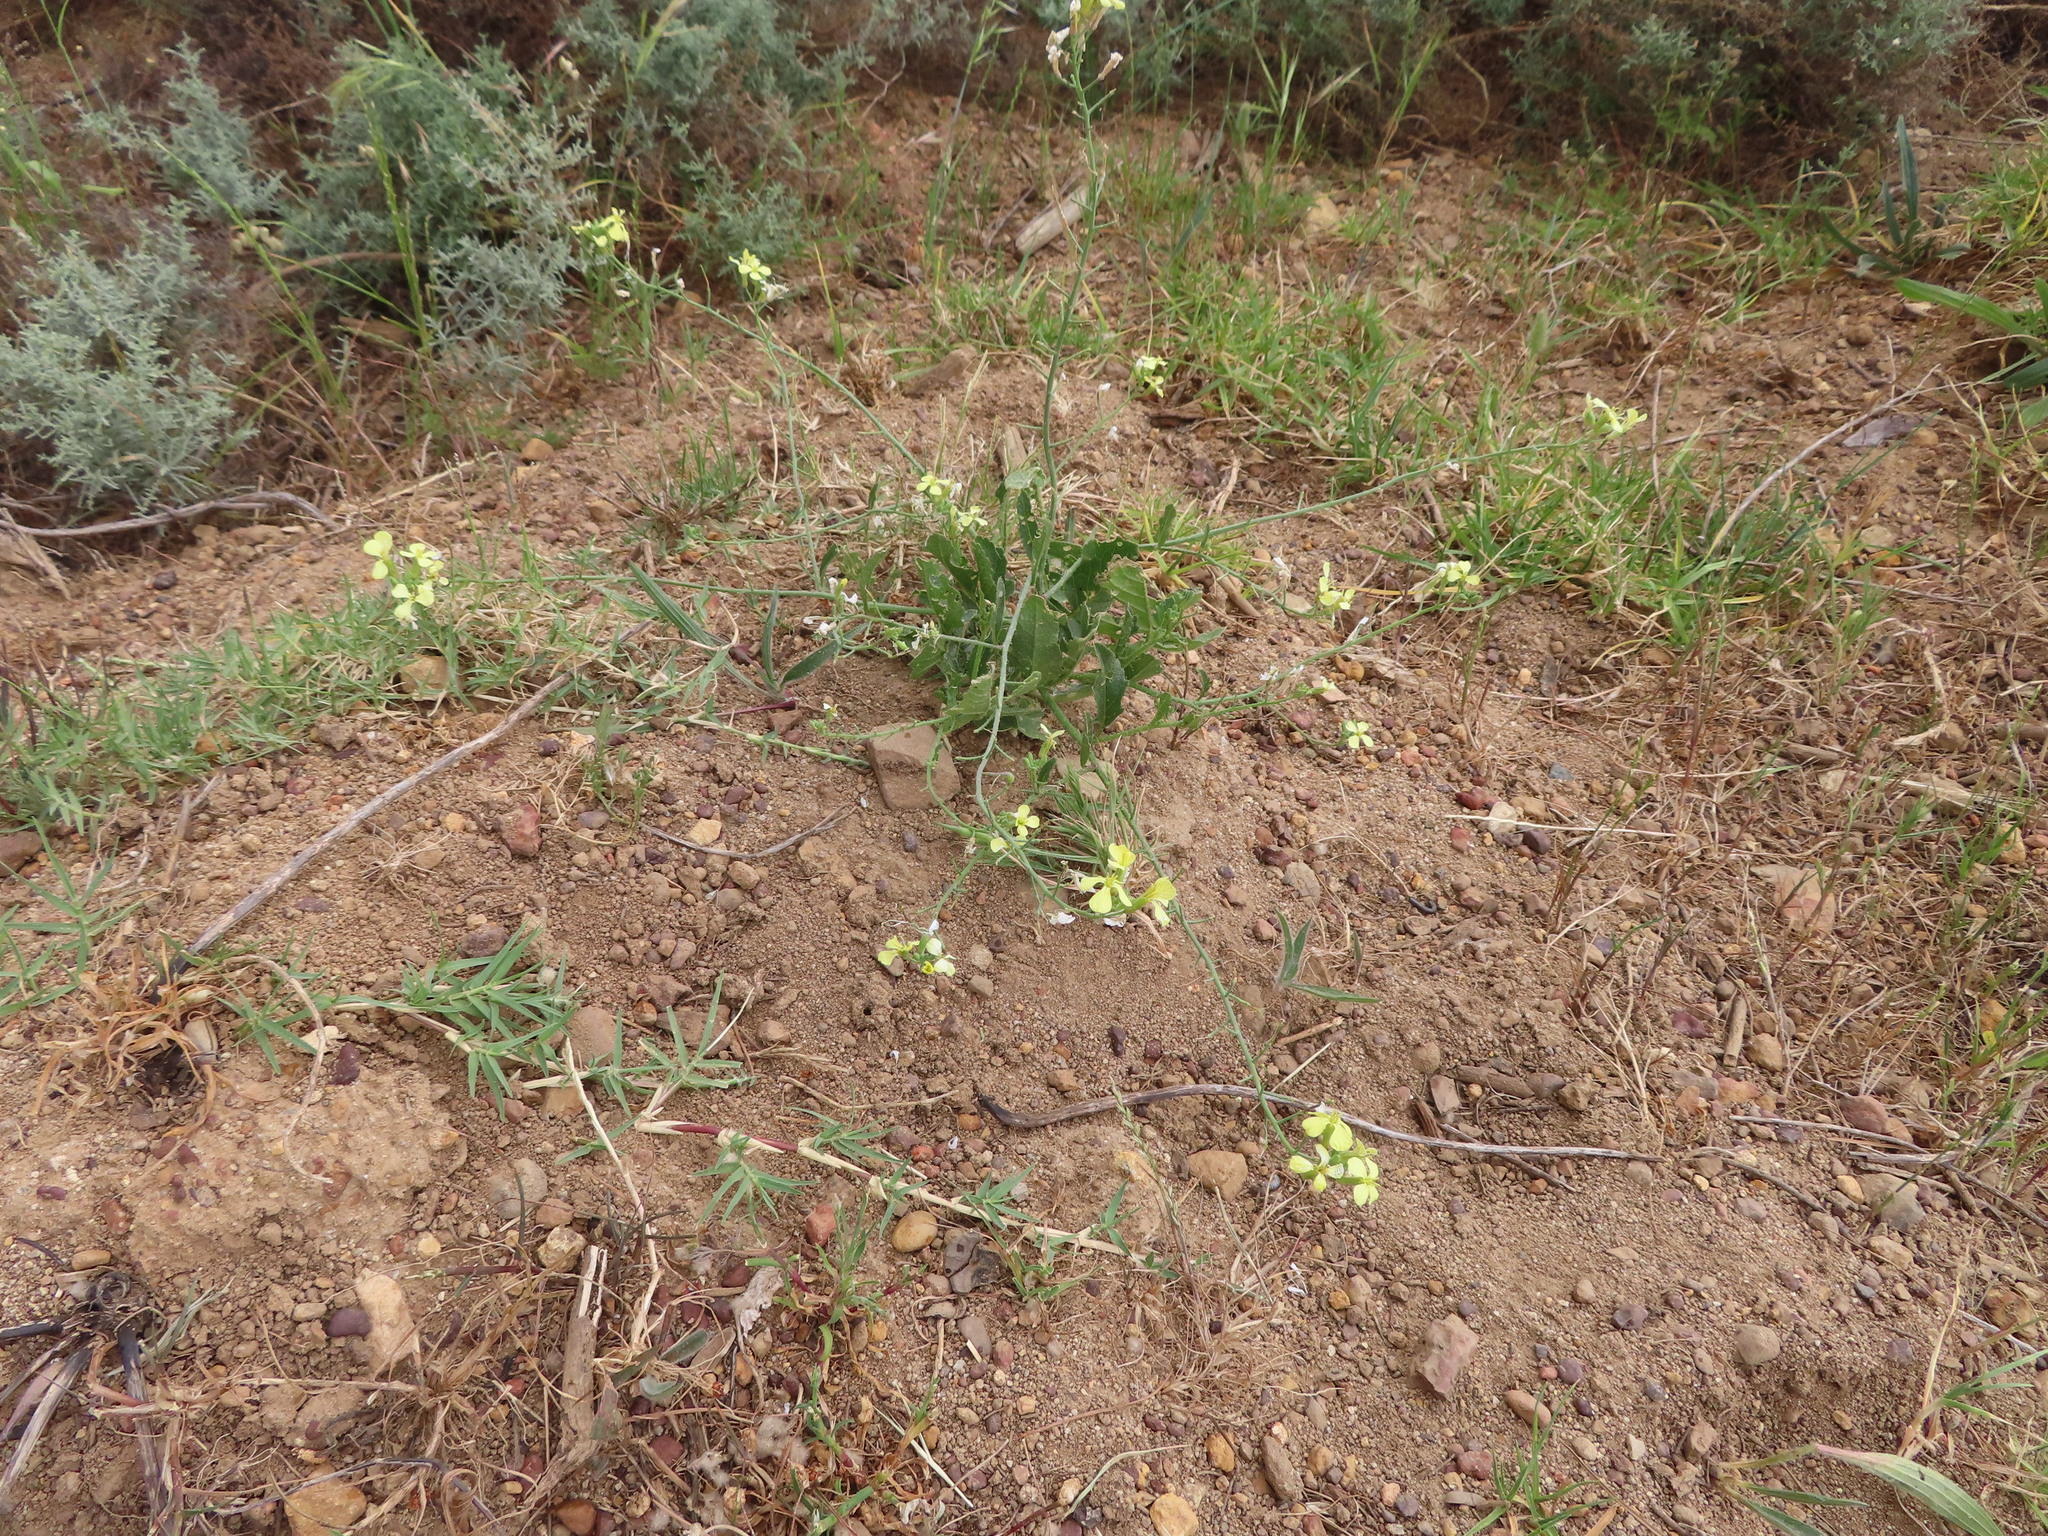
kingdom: Plantae
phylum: Tracheophyta
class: Liliopsida
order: Poales
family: Poaceae
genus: Cynodon
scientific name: Cynodon dactylon
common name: Bermuda grass
